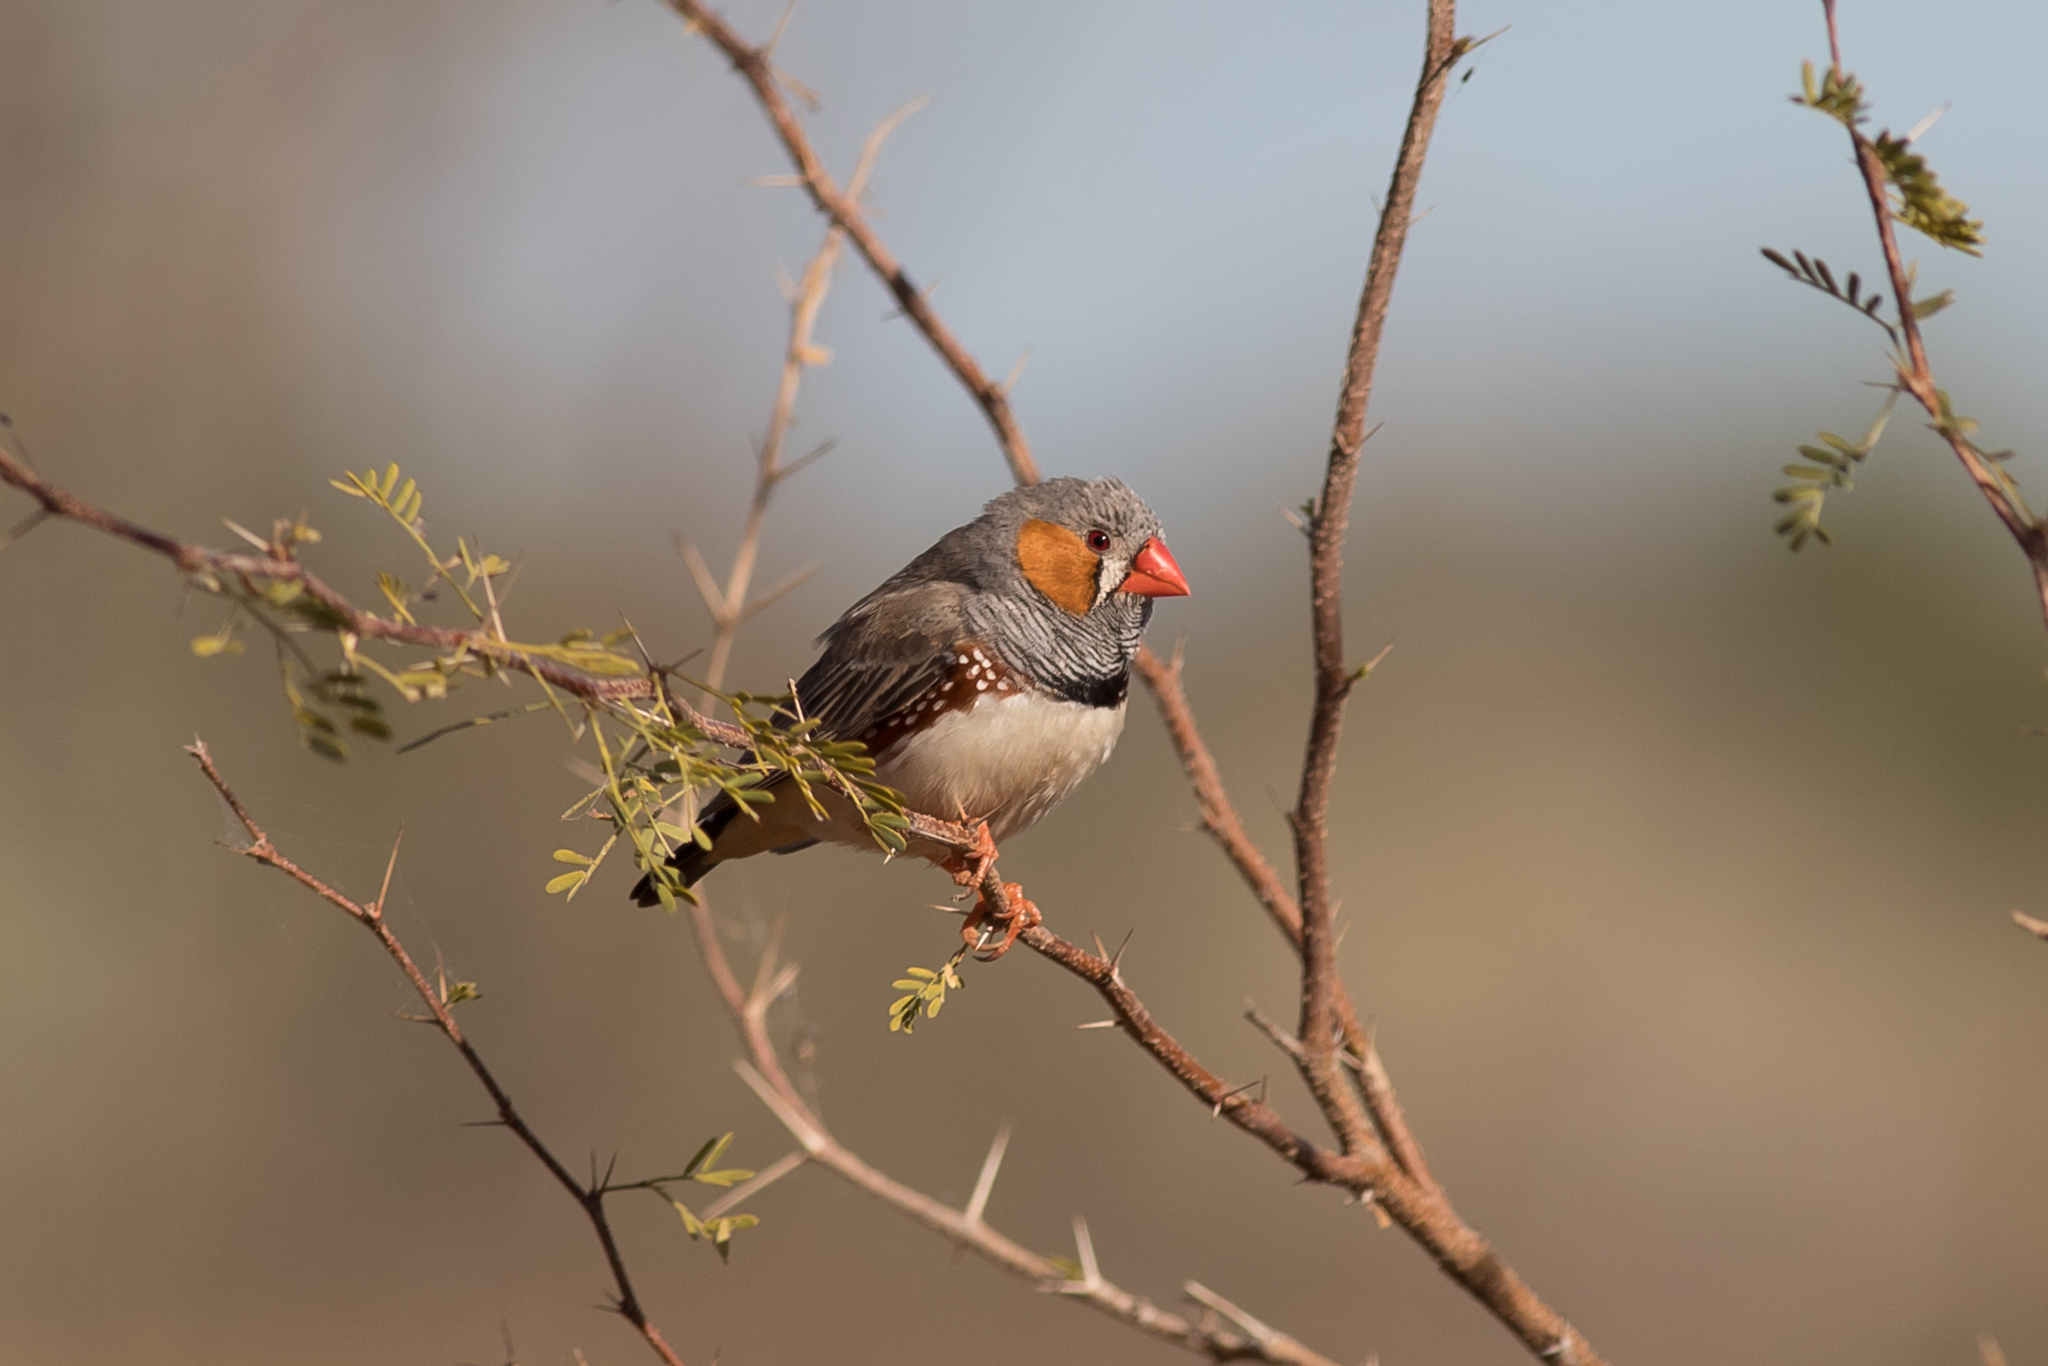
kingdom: Animalia
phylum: Chordata
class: Aves
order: Passeriformes
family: Estrildidae
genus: Taeniopygia
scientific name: Taeniopygia guttata
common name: Zebra finch
